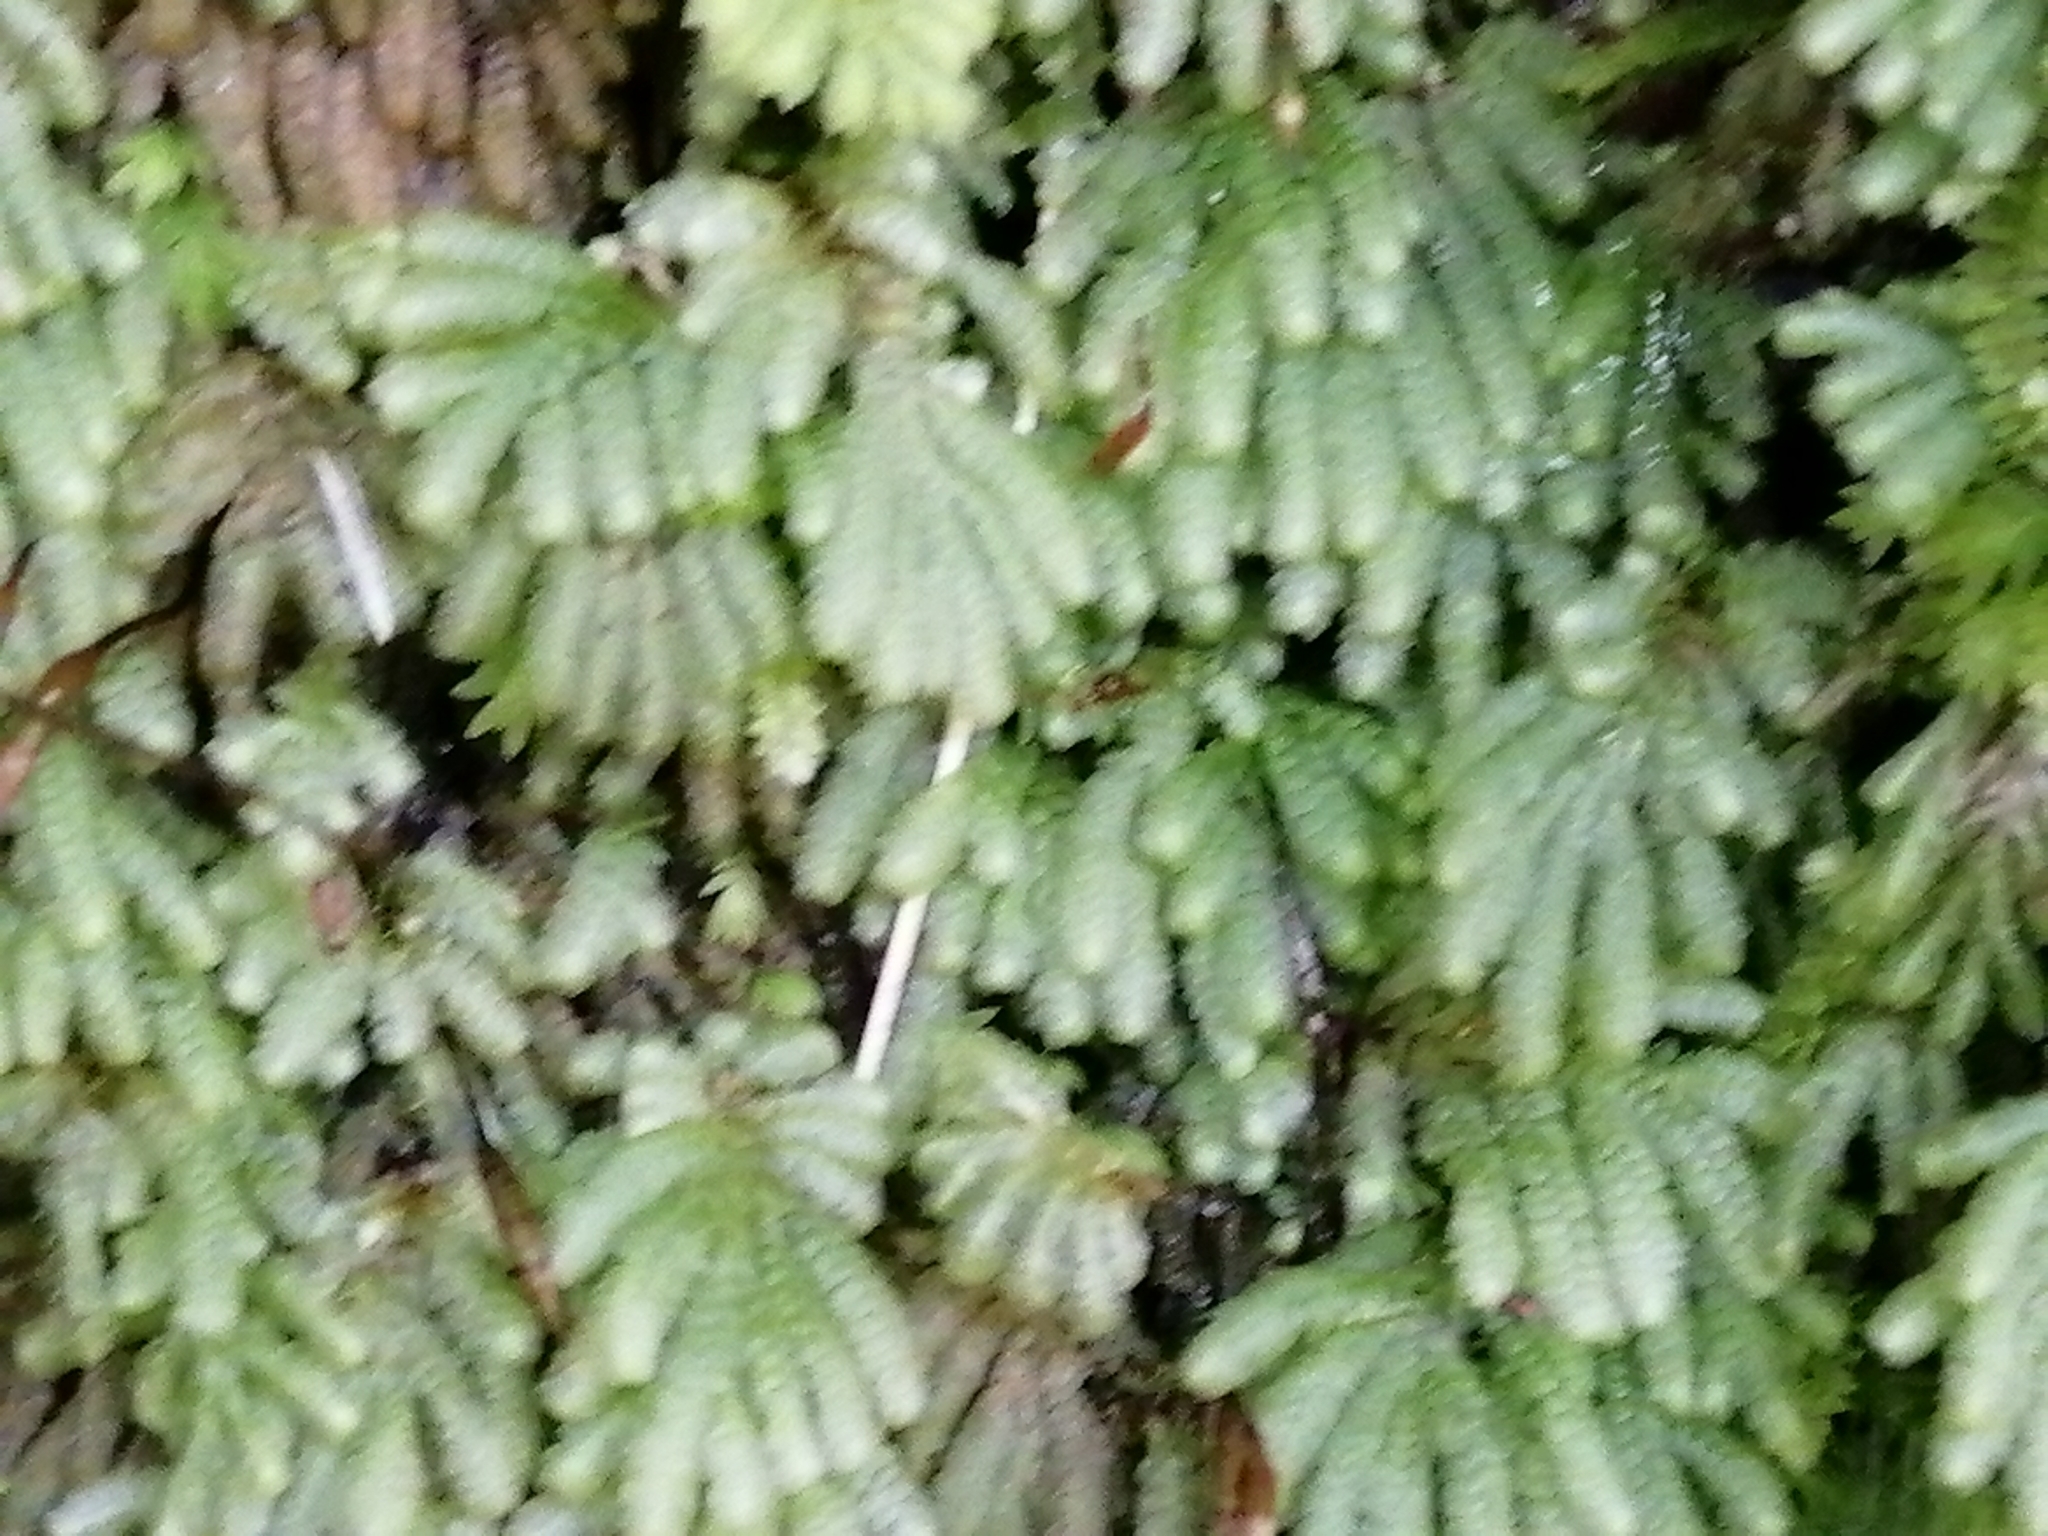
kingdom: Plantae
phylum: Bryophyta
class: Bryopsida
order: Hypopterygiales
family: Hypopterygiaceae
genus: Catharomnion
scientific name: Catharomnion ciliatum
